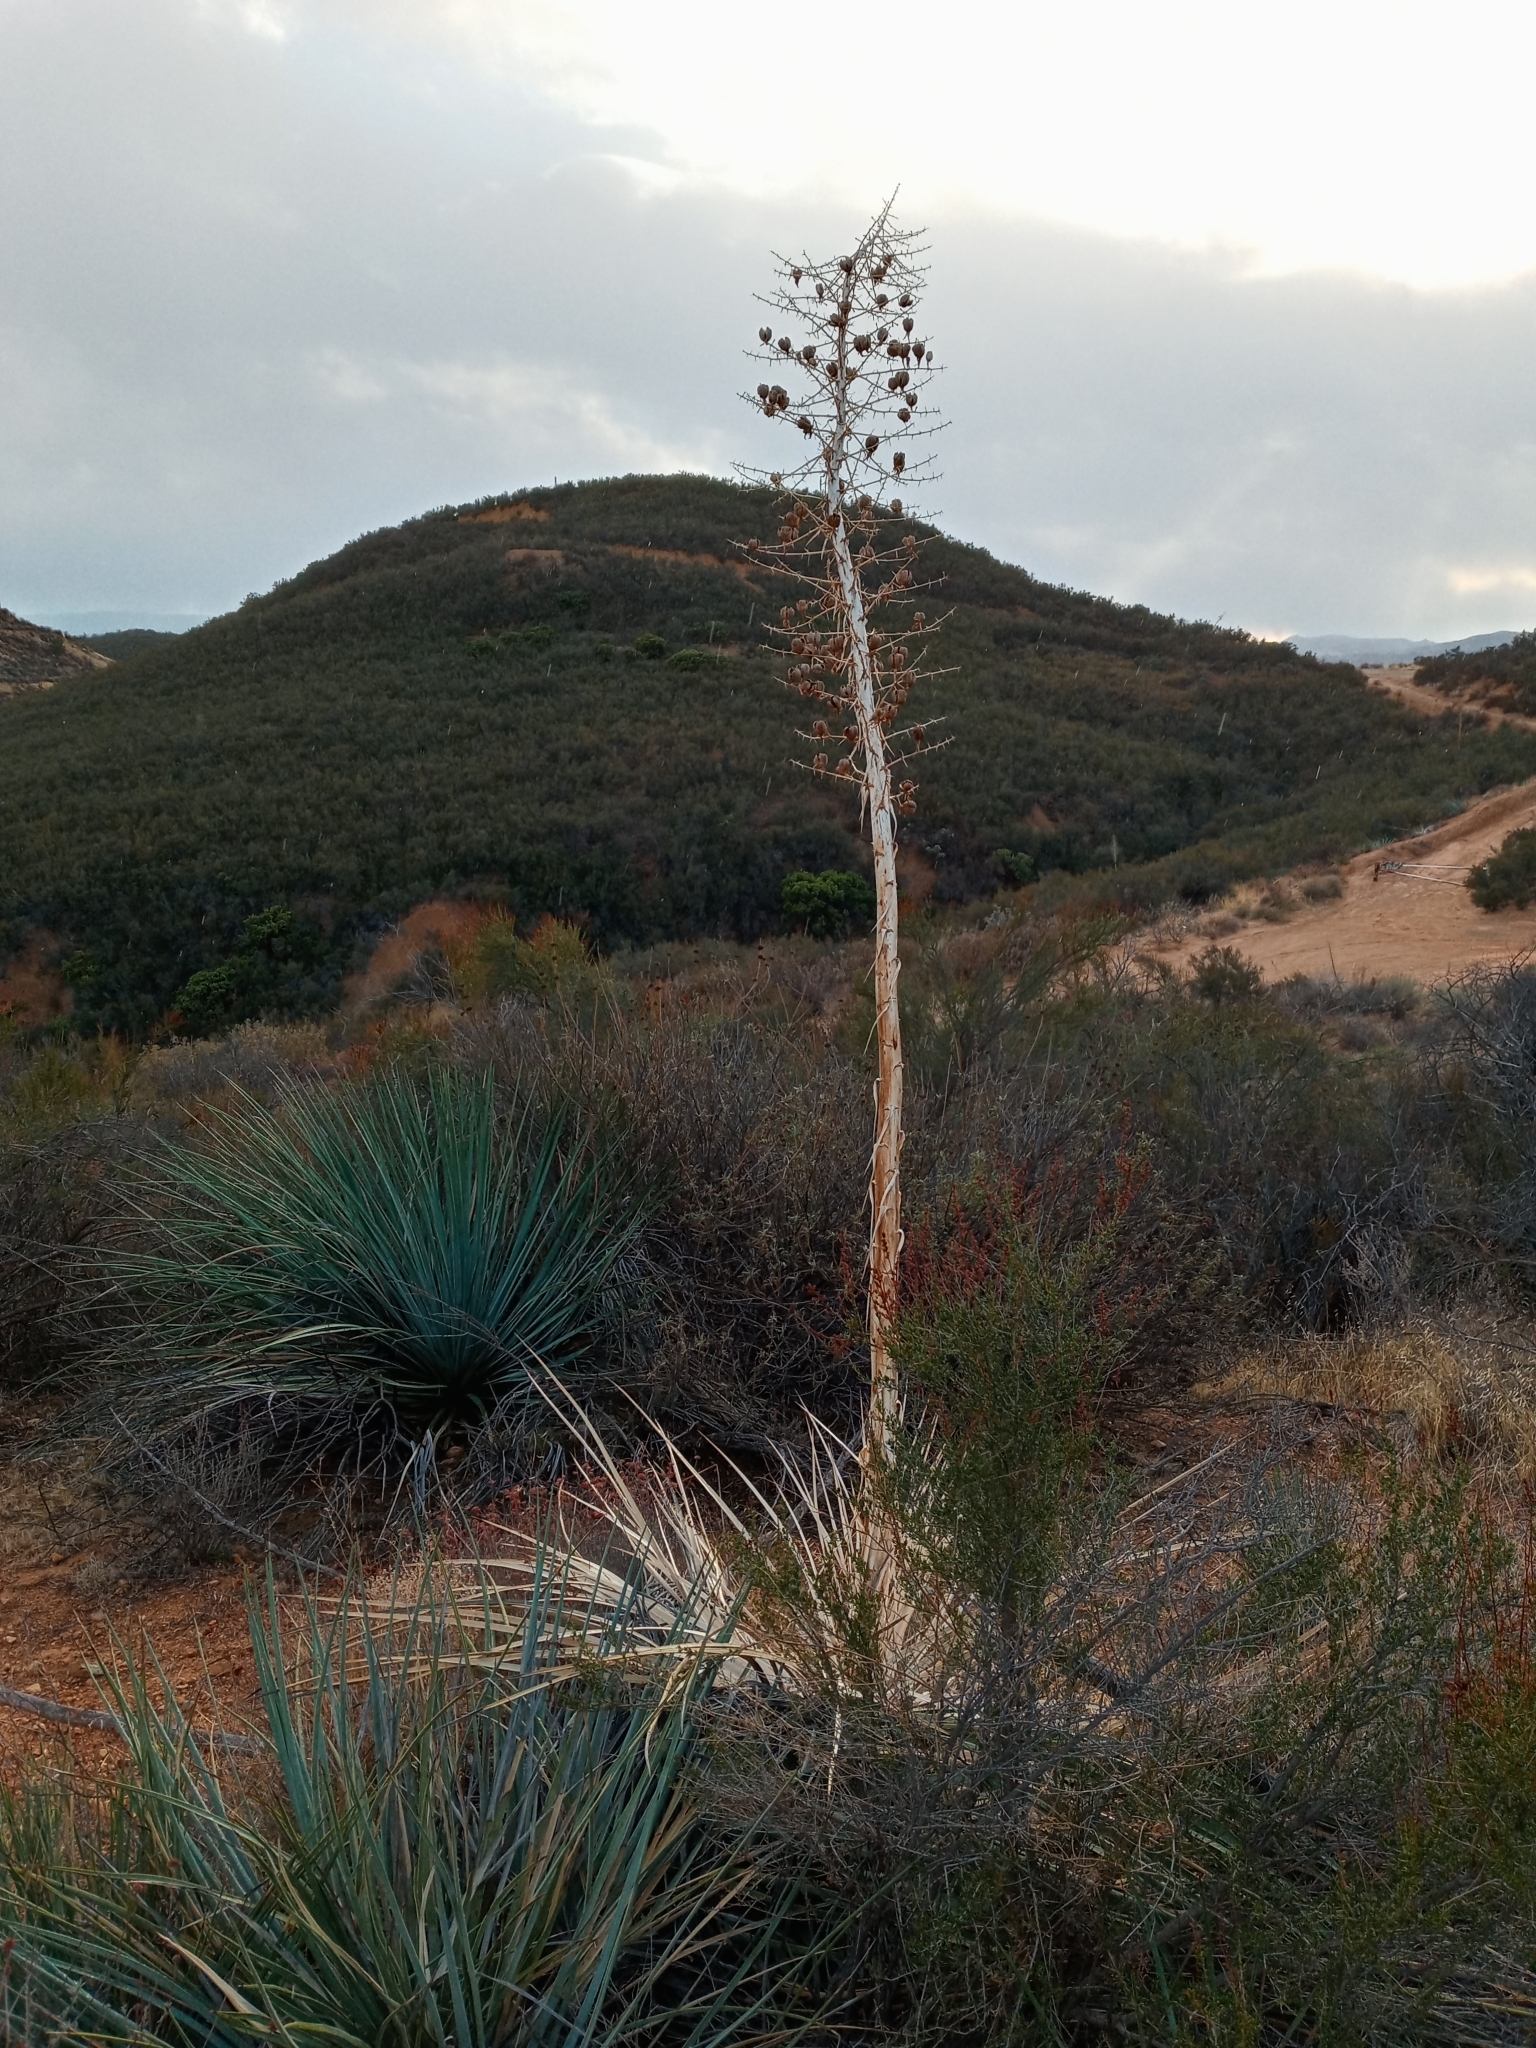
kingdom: Plantae
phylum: Tracheophyta
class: Liliopsida
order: Asparagales
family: Asparagaceae
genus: Hesperoyucca
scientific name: Hesperoyucca whipplei
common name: Our lord's-candle
